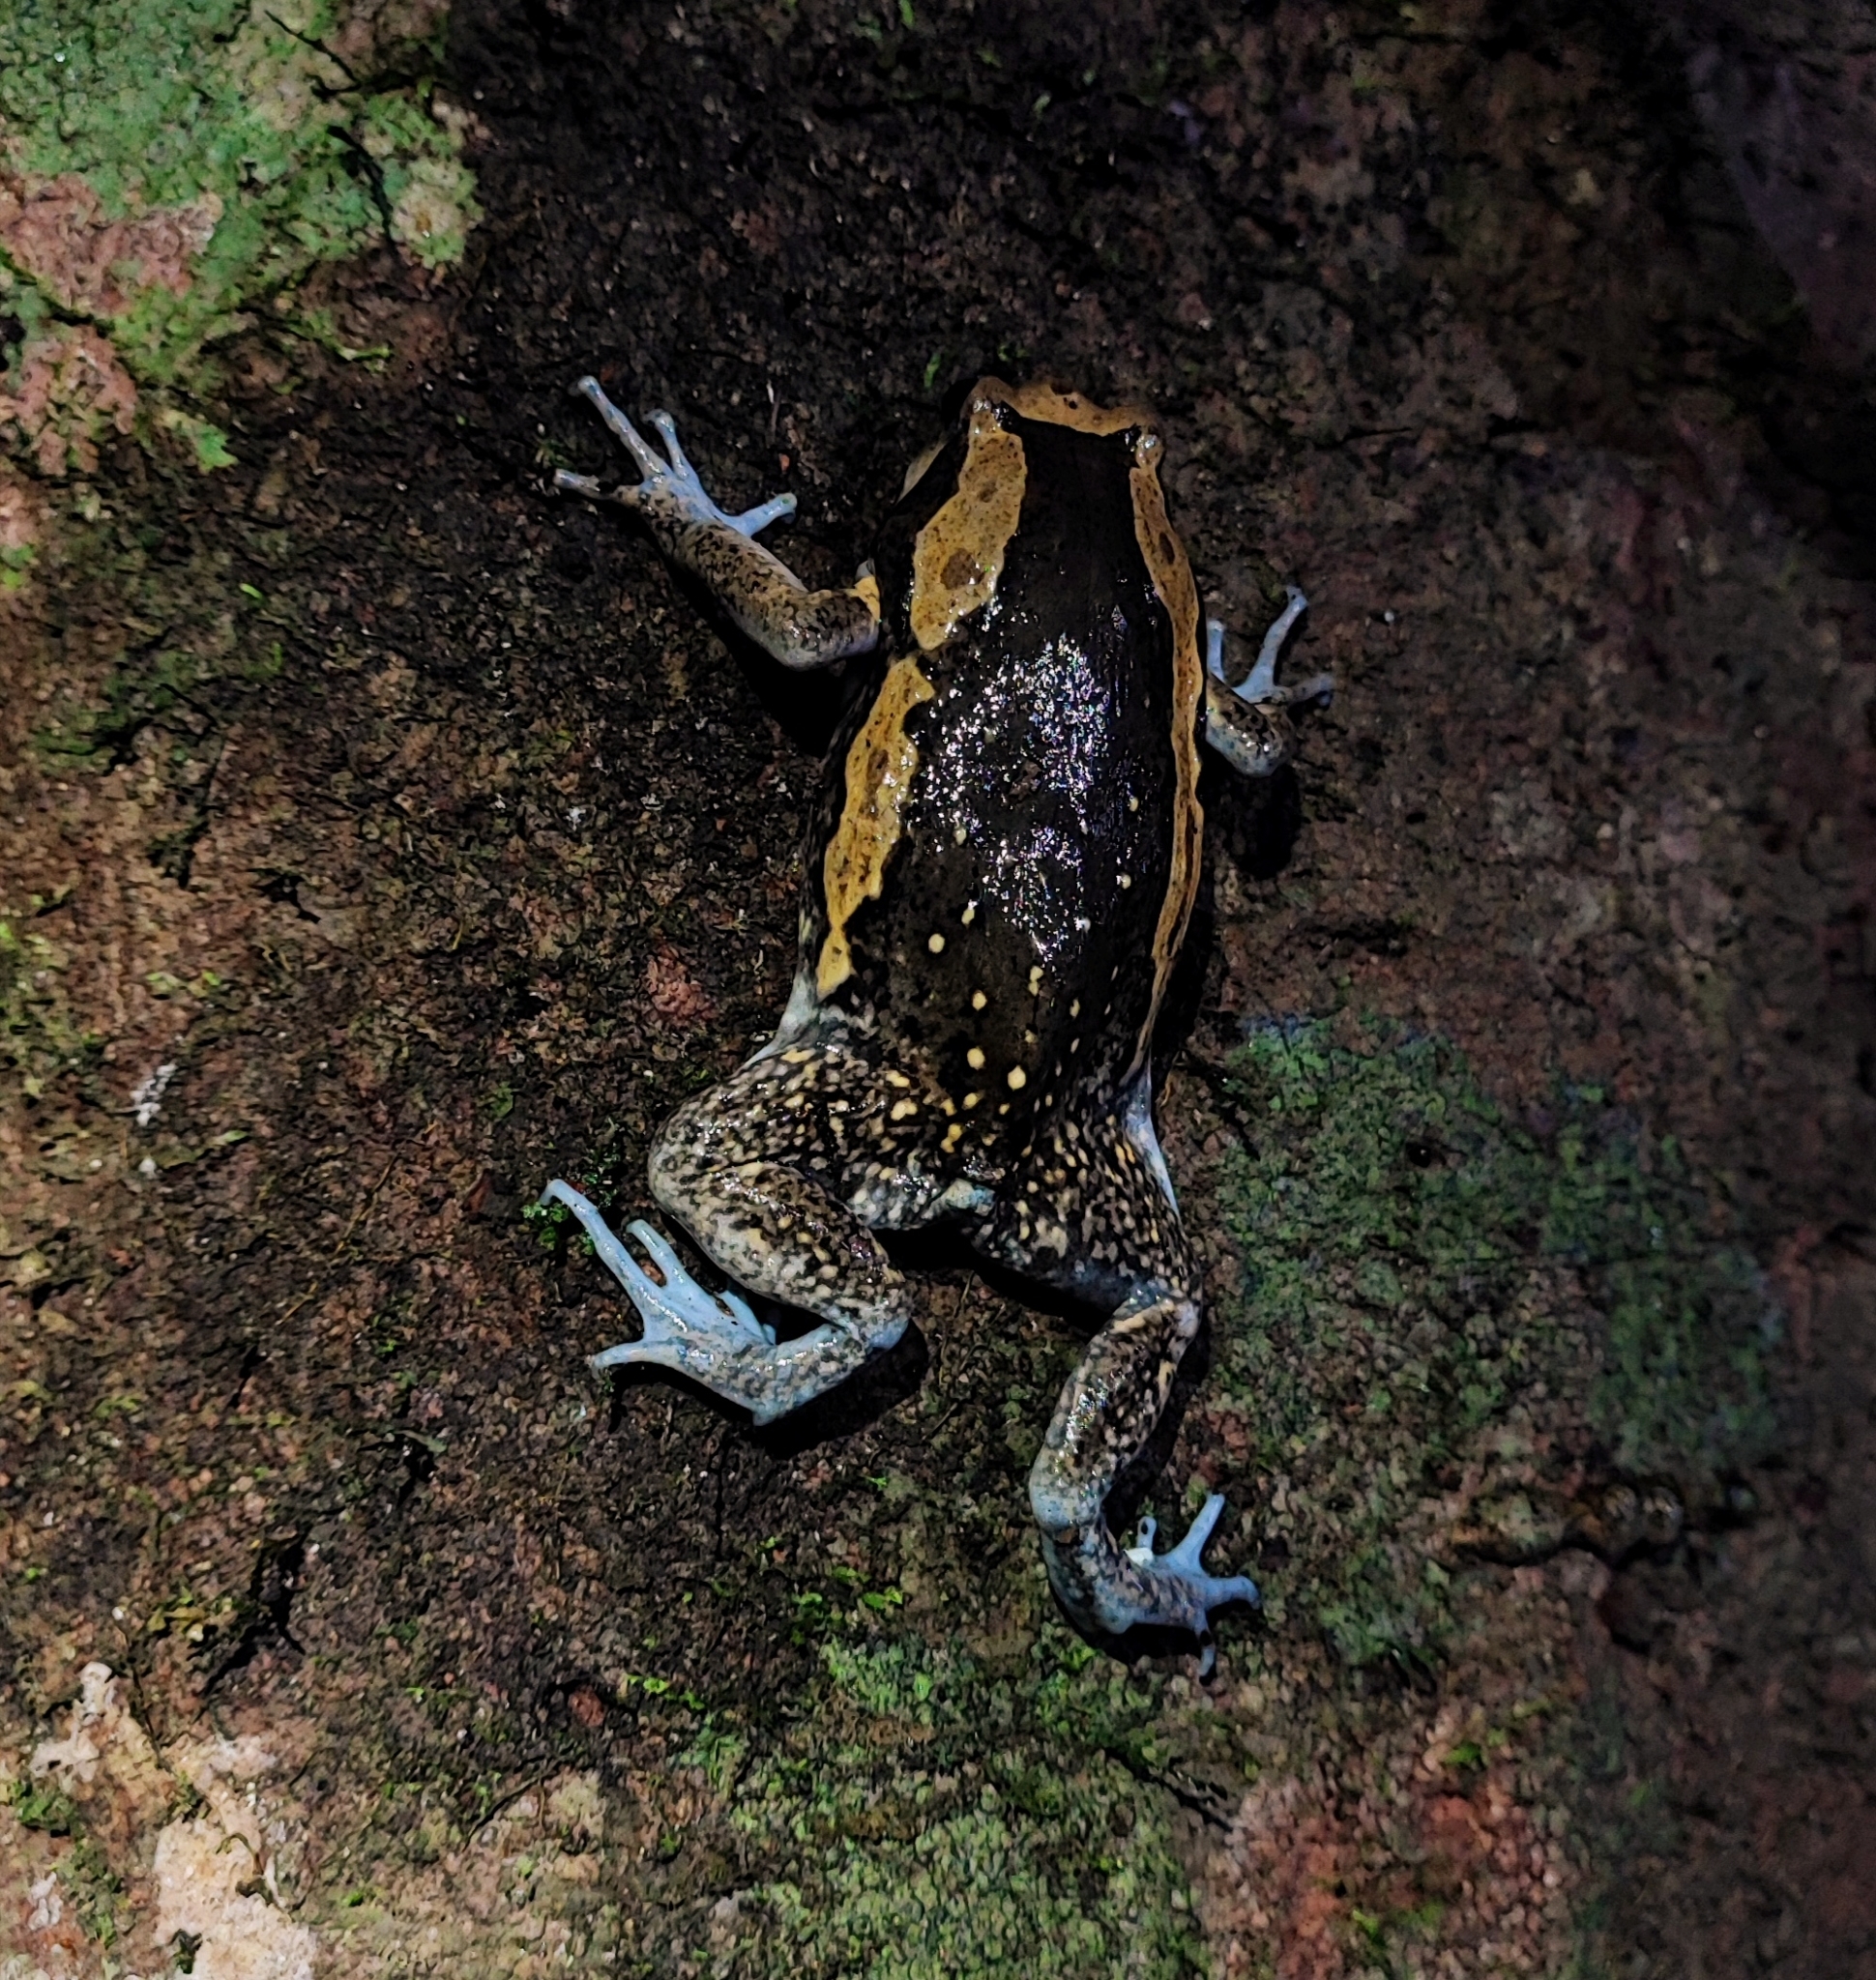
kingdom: Animalia
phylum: Chordata
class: Amphibia
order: Anura
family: Microhylidae
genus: Kaloula
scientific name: Kaloula pulchra
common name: Common,banded bullfrog
